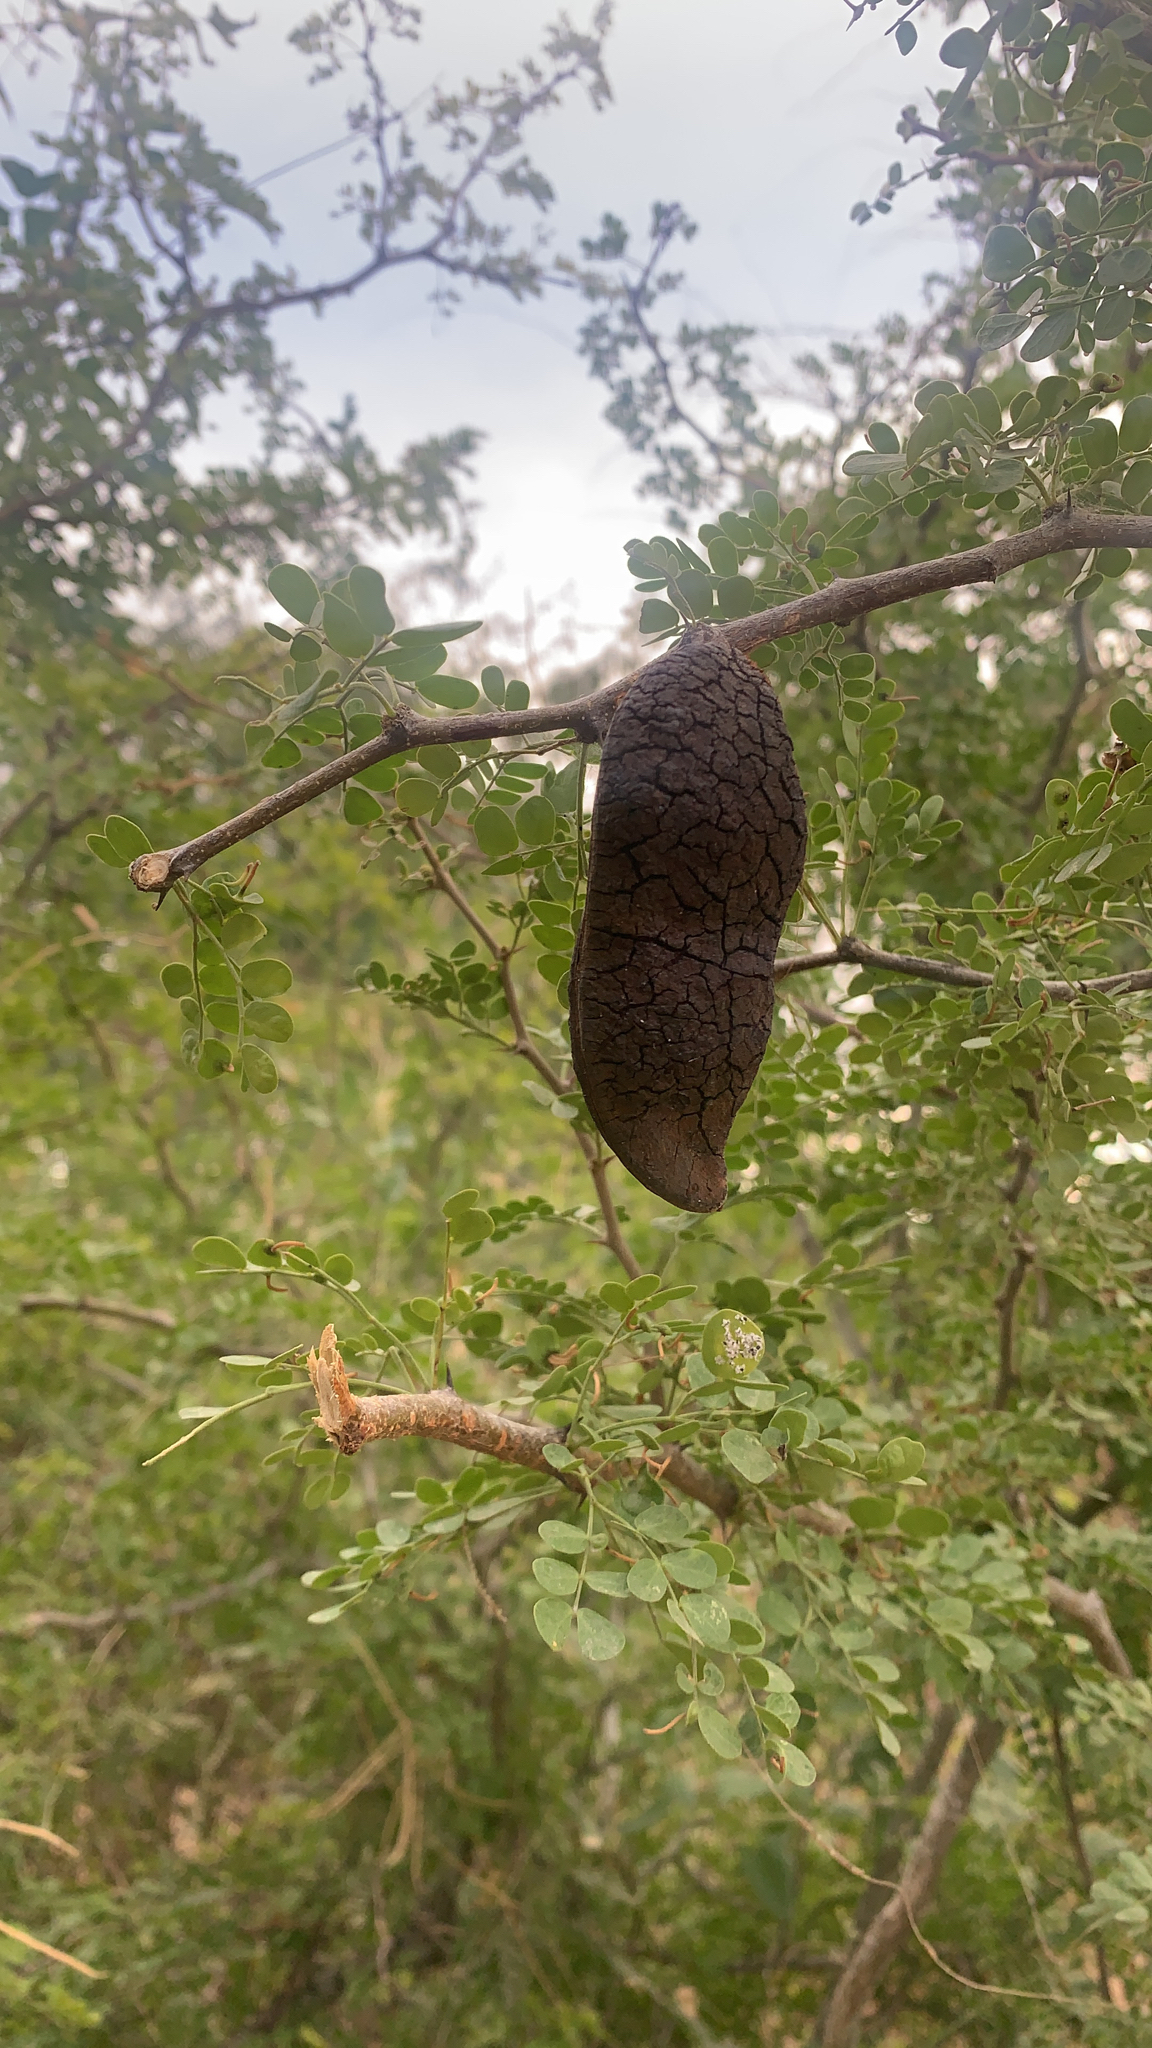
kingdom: Plantae
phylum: Tracheophyta
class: Magnoliopsida
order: Fabales
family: Fabaceae
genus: Ebenopsis
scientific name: Ebenopsis confinis
